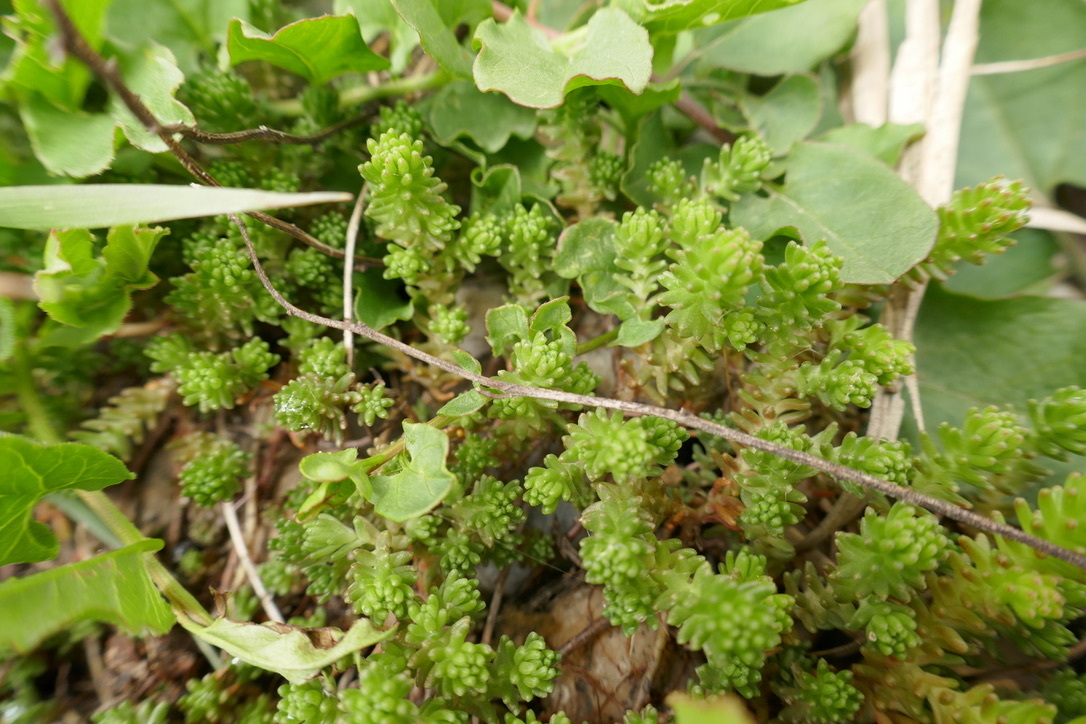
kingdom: Plantae
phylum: Tracheophyta
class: Magnoliopsida
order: Saxifragales
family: Crassulaceae
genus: Sedum
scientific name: Sedum sexangulare
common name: Tasteless stonecrop
